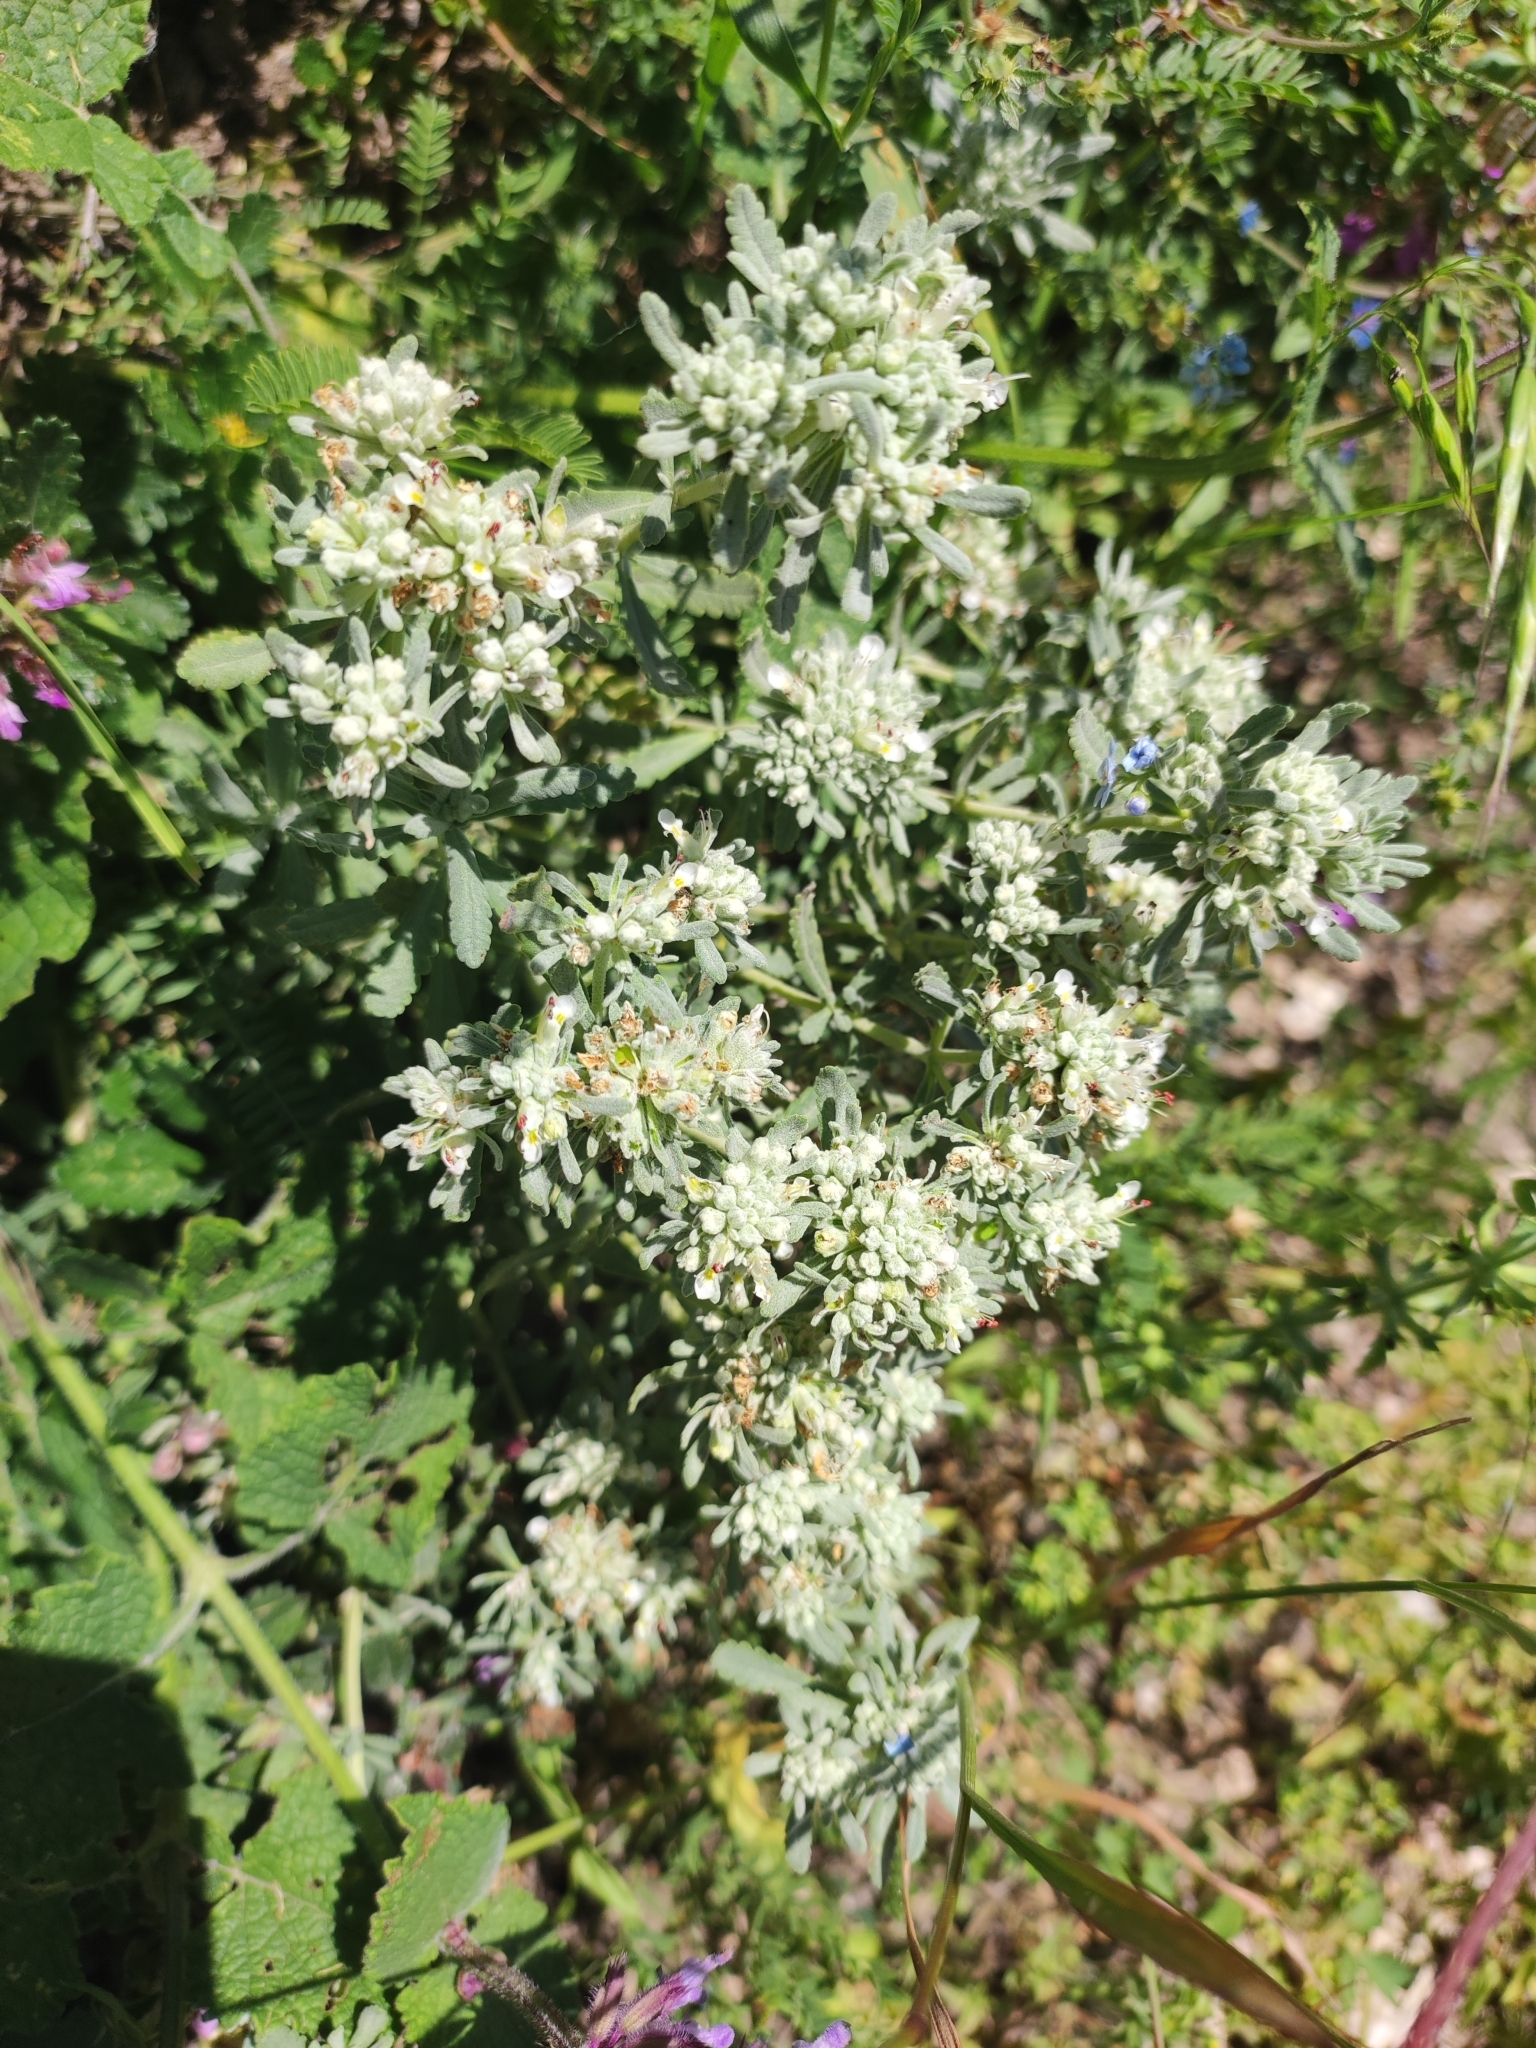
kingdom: Plantae
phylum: Tracheophyta
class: Magnoliopsida
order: Lamiales
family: Lamiaceae
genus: Teucrium
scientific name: Teucrium polium
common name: Poley
